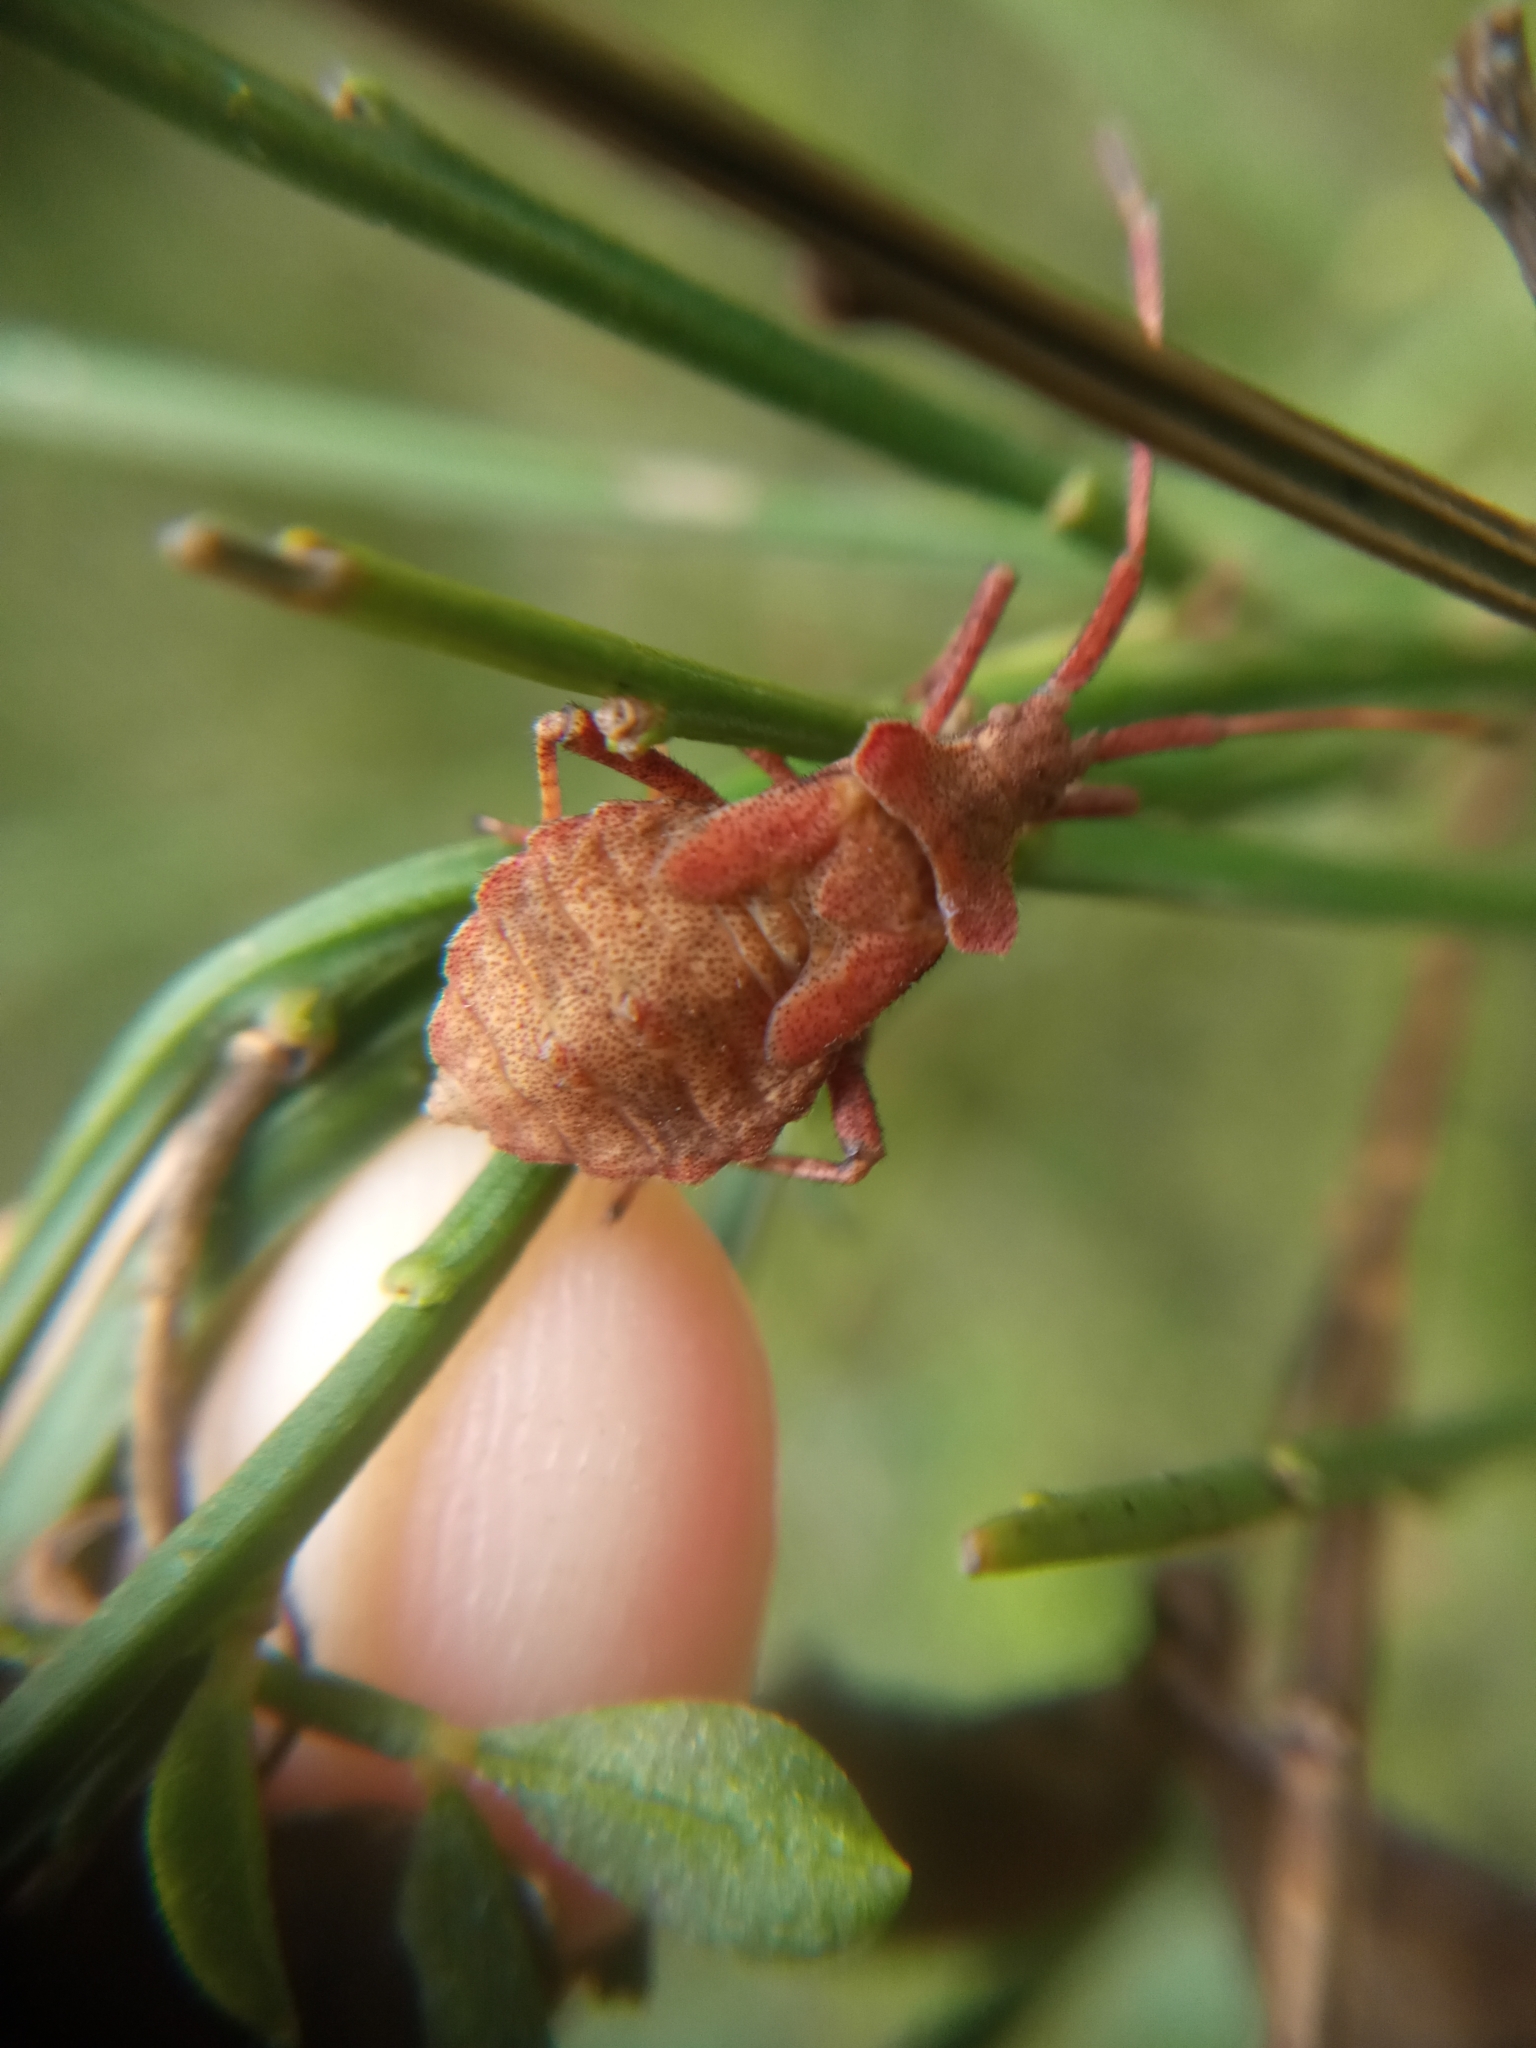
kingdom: Animalia
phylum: Arthropoda
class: Insecta
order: Hemiptera
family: Coreidae
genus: Coreus
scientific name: Coreus marginatus
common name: Dock bug
